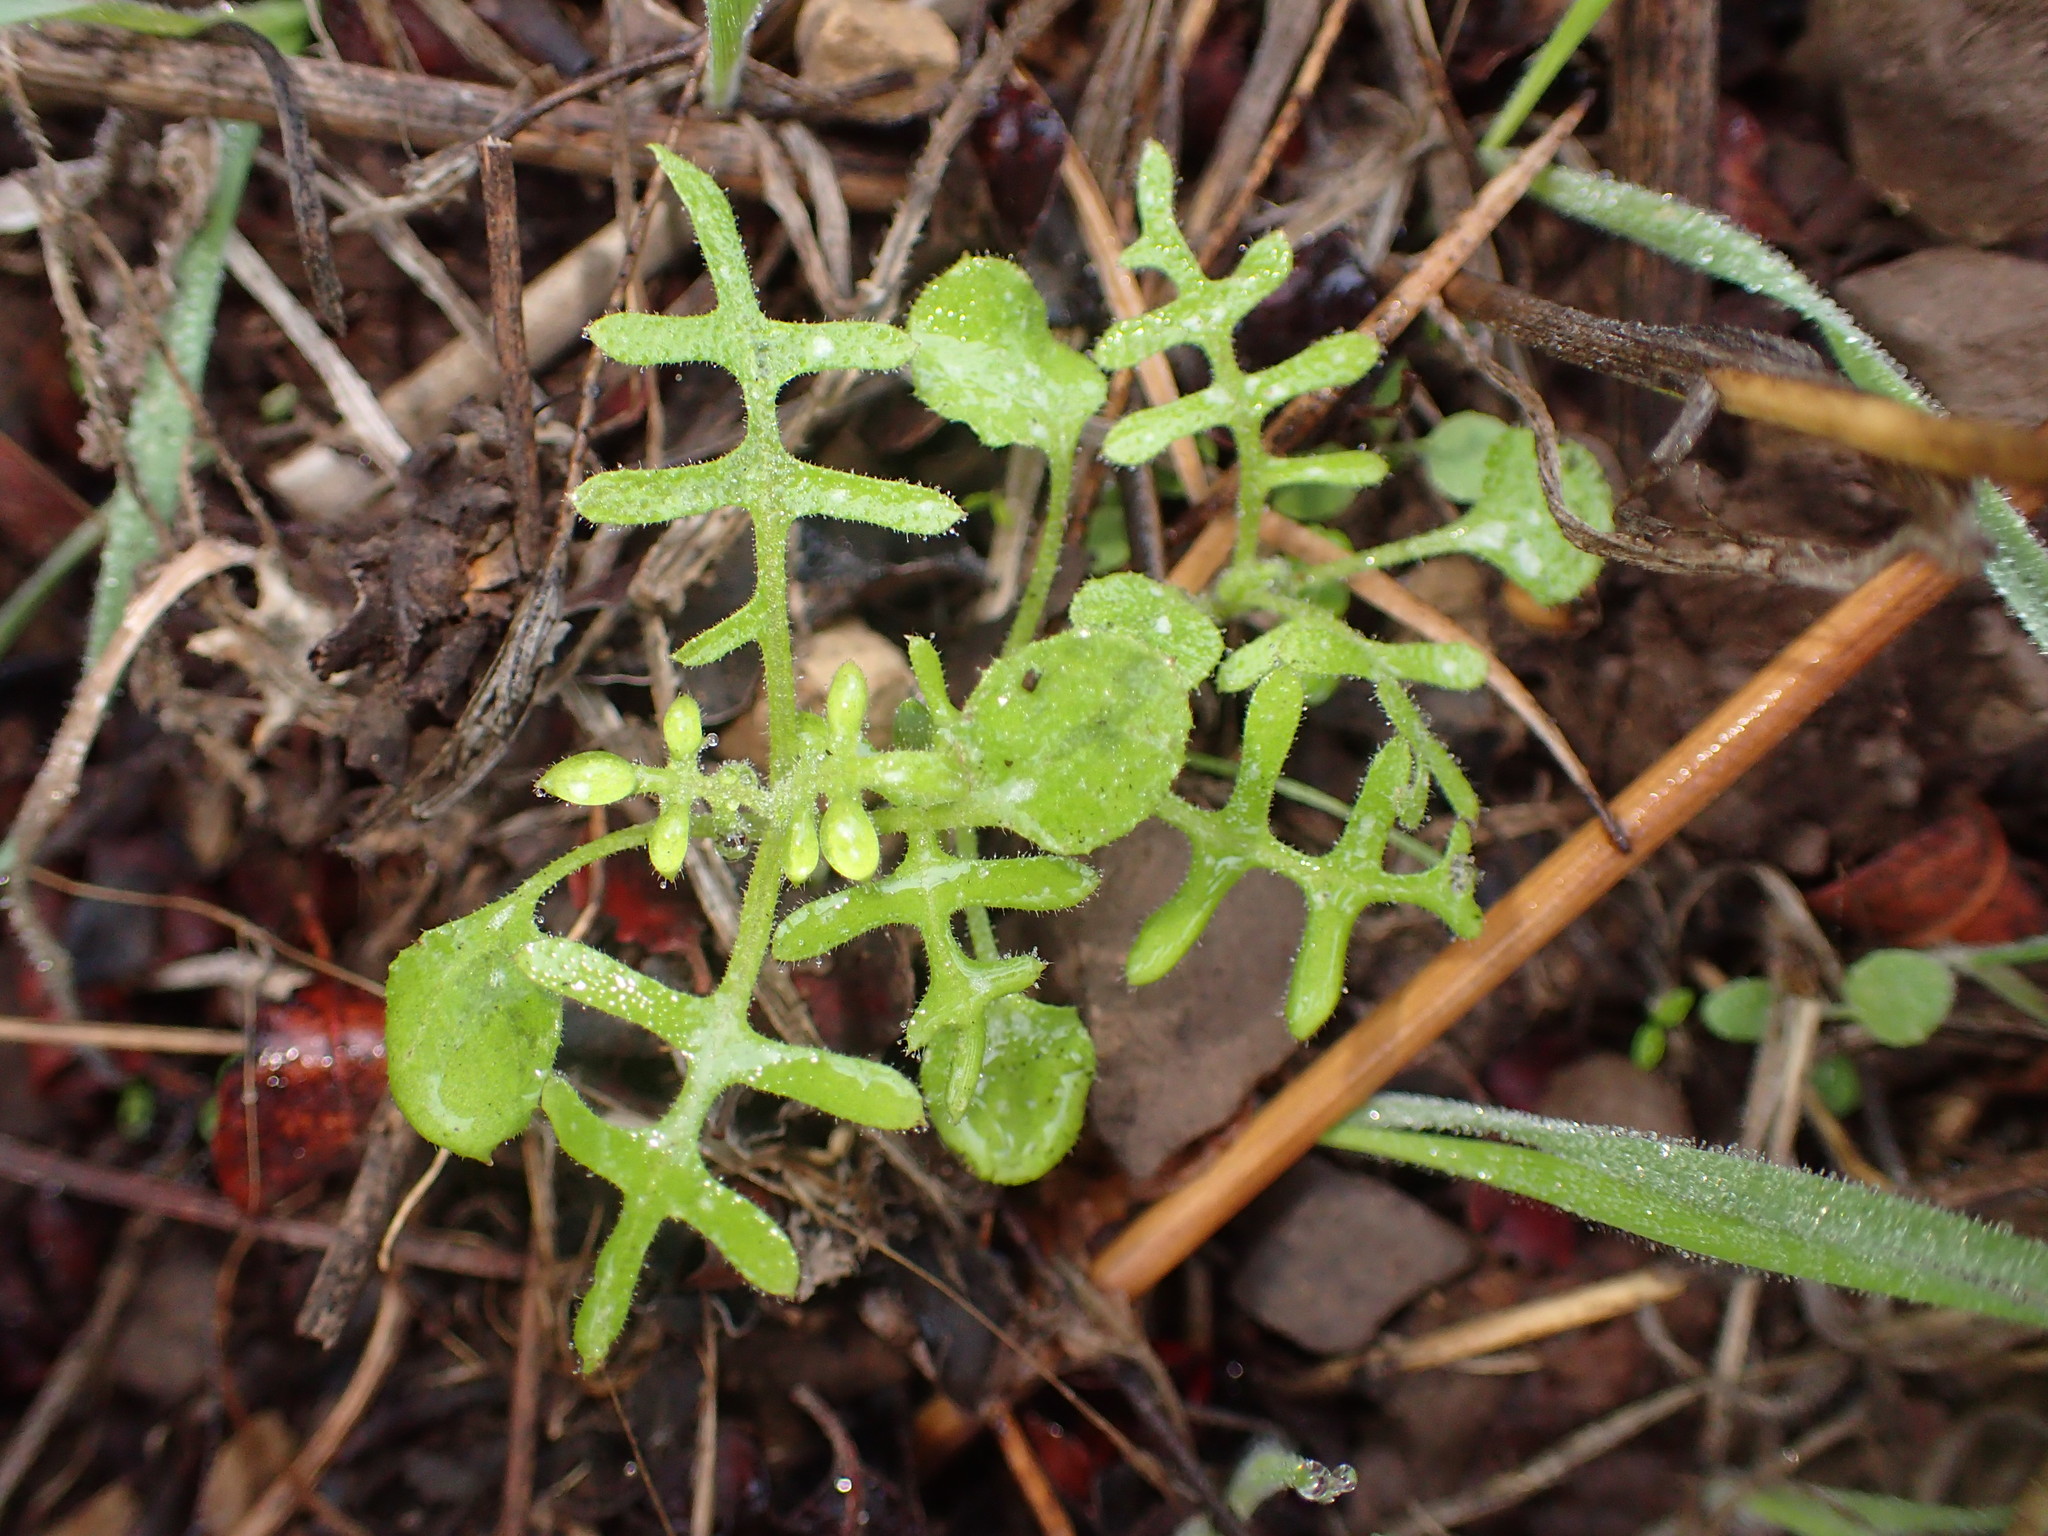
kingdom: Plantae
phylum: Tracheophyta
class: Magnoliopsida
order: Boraginales
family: Hydrophyllaceae
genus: Pholistoma
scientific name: Pholistoma auritum
